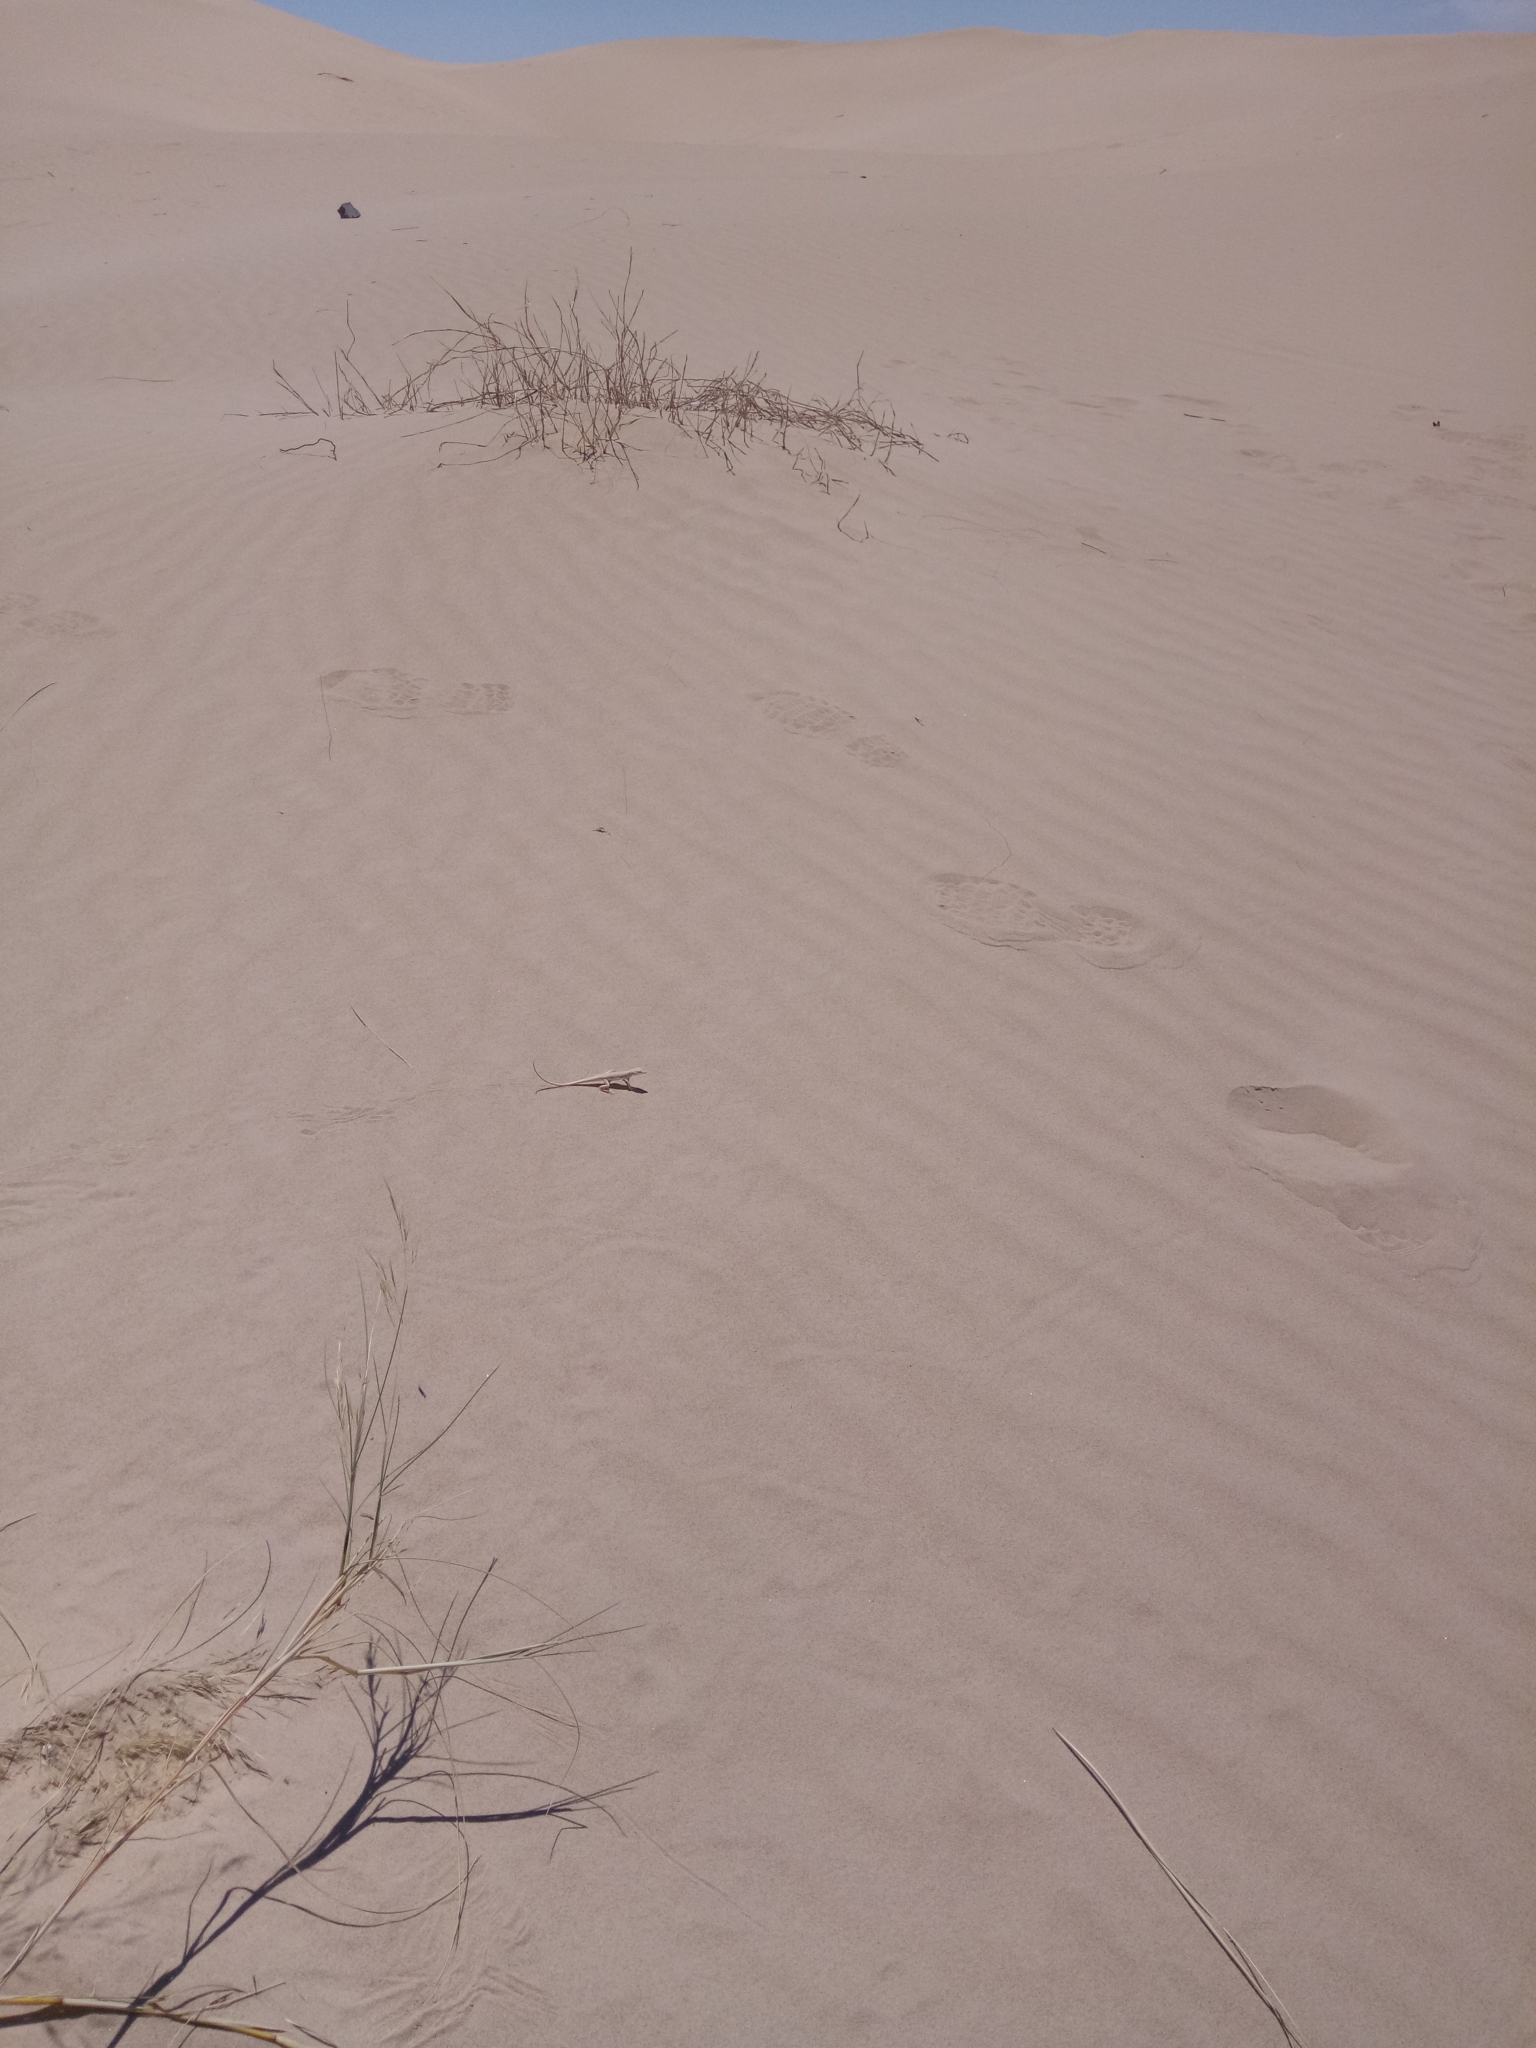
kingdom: Animalia
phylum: Chordata
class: Squamata
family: Lacertidae
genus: Acanthodactylus
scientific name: Acanthodactylus boskianus
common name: Bosc’s fringe-toed lizard
